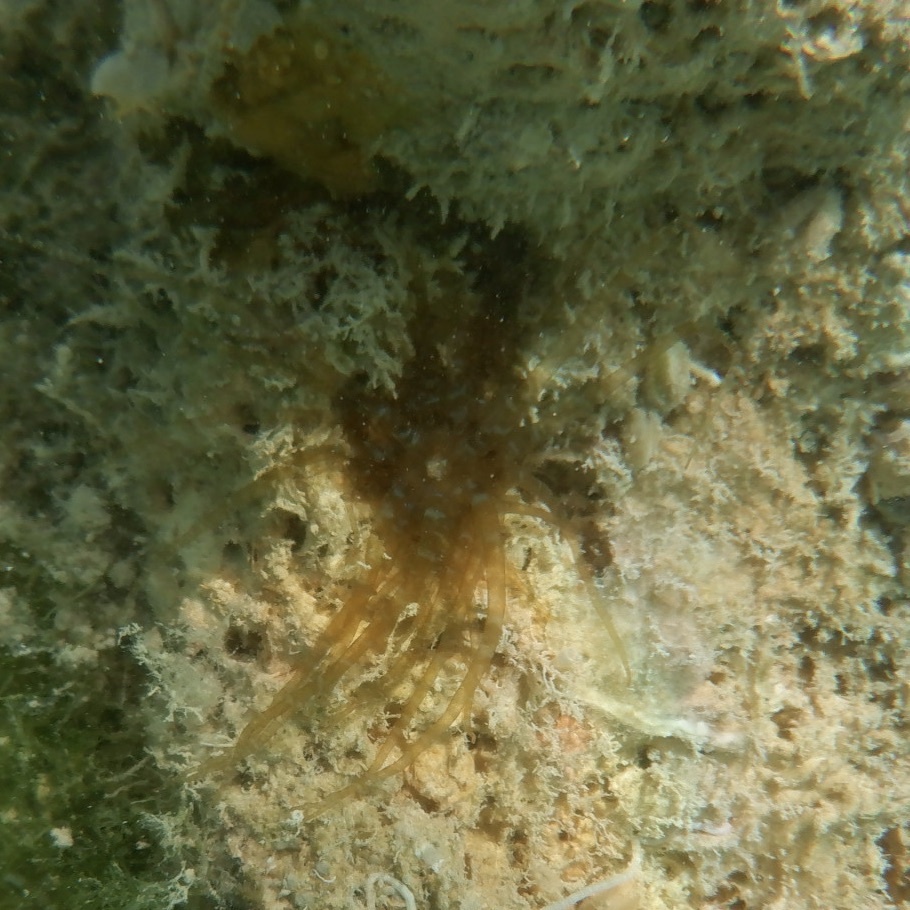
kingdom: Animalia
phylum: Cnidaria
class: Anthozoa
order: Actiniaria
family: Aiptasiidae
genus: Bartholomea
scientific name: Bartholomea annulata
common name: Corkscrew anemone
